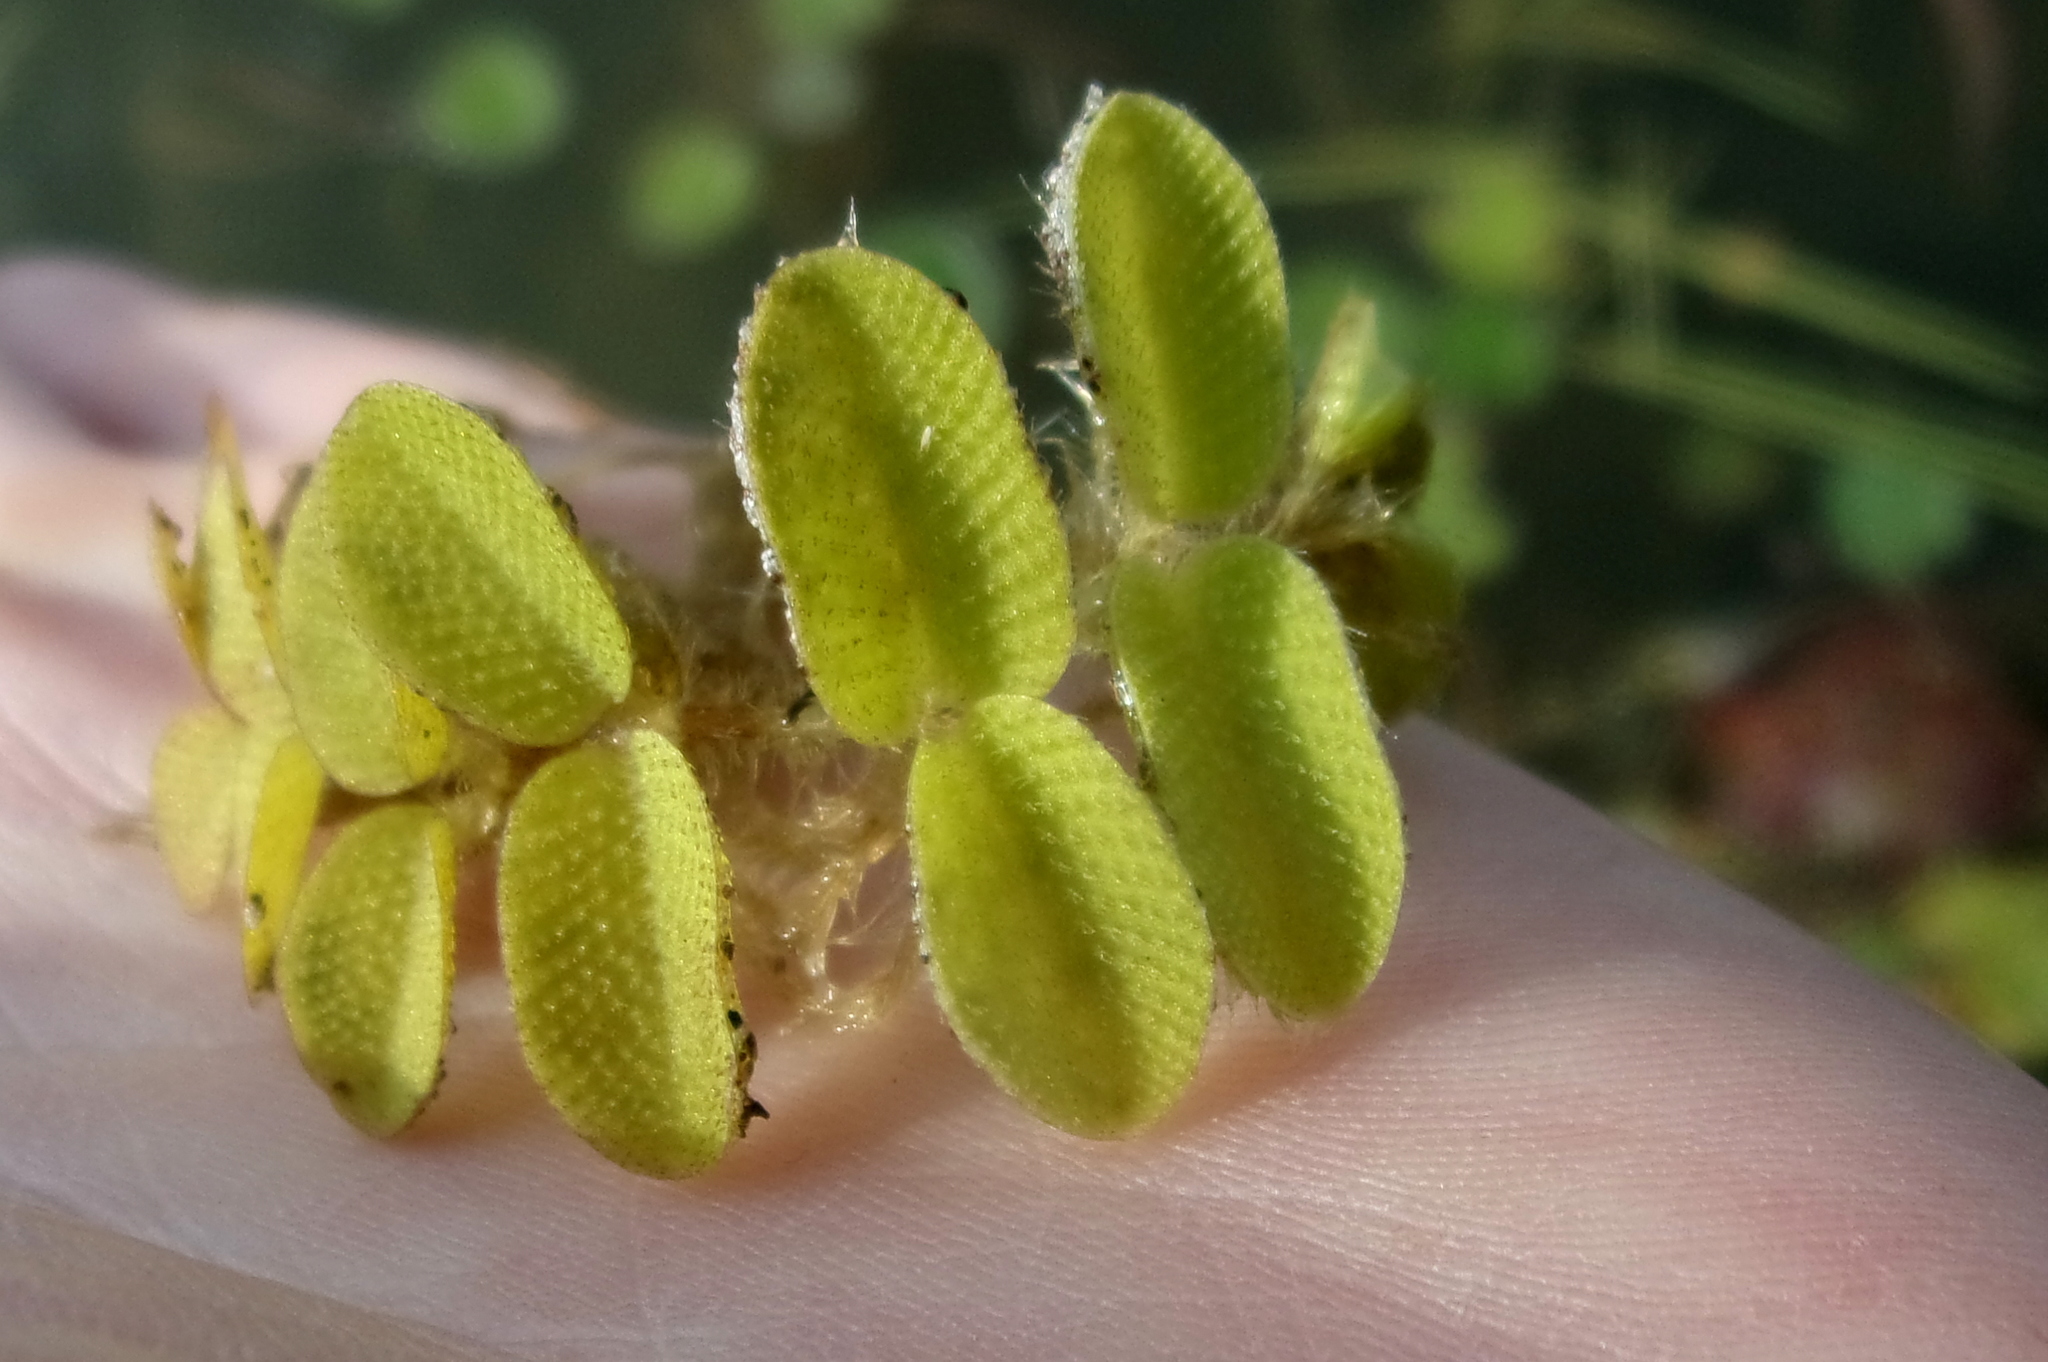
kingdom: Plantae
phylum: Tracheophyta
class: Polypodiopsida
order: Salviniales
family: Salviniaceae
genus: Salvinia
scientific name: Salvinia natans
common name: Floating fern
